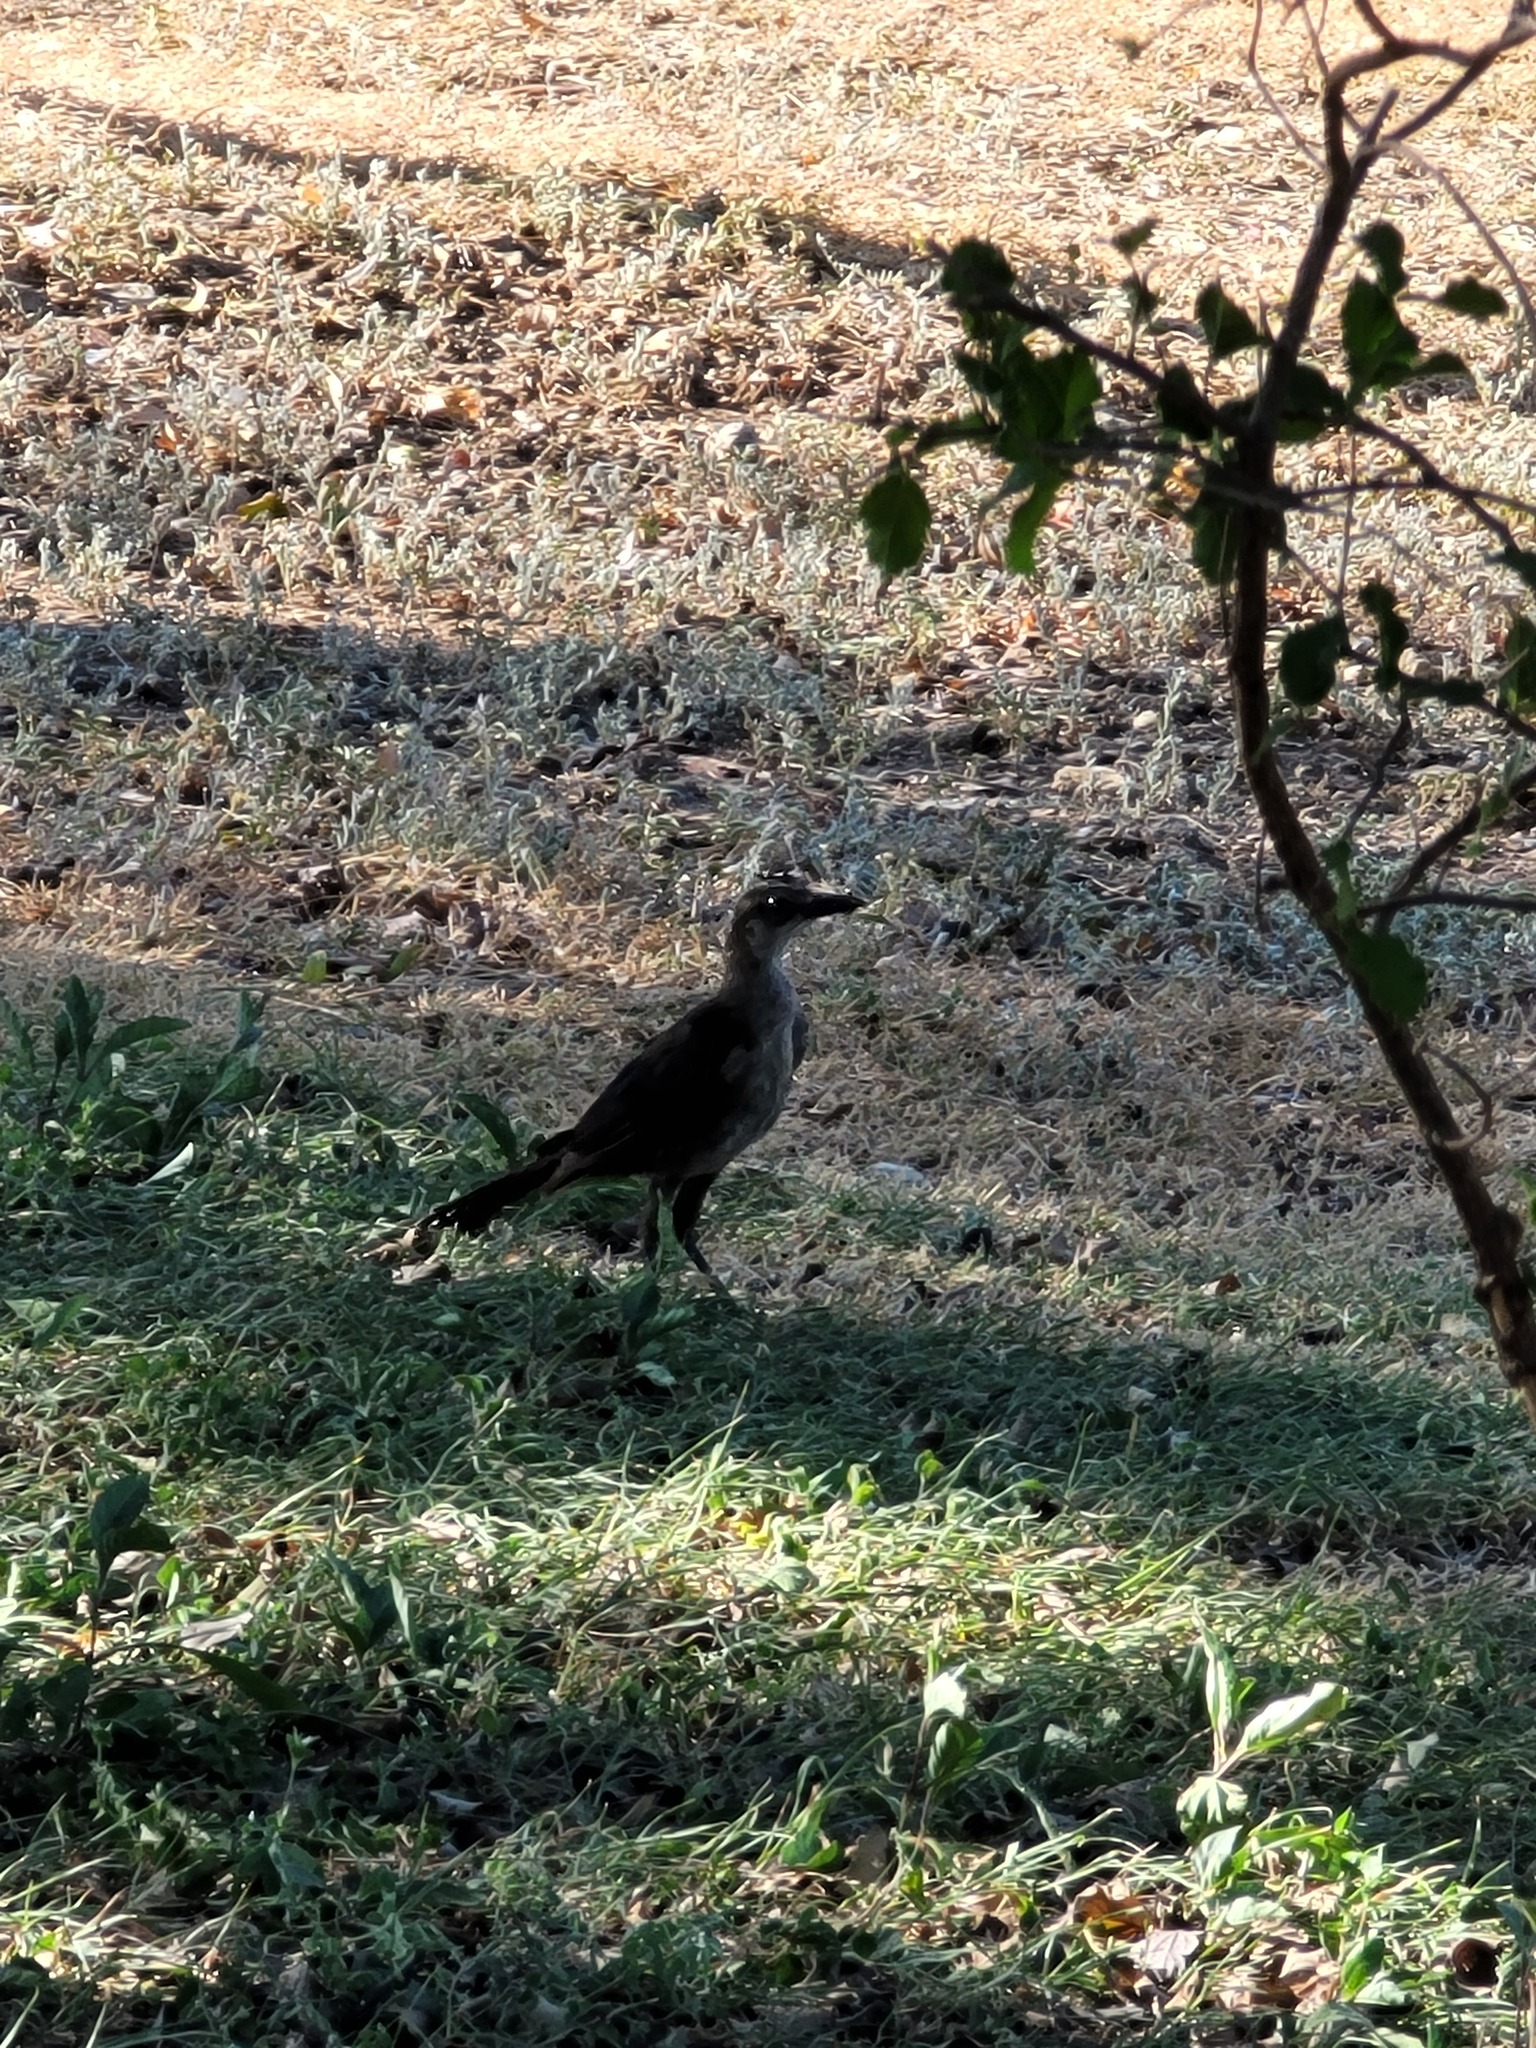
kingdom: Animalia
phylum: Chordata
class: Aves
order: Passeriformes
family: Icteridae
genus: Quiscalus
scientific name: Quiscalus mexicanus
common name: Great-tailed grackle
